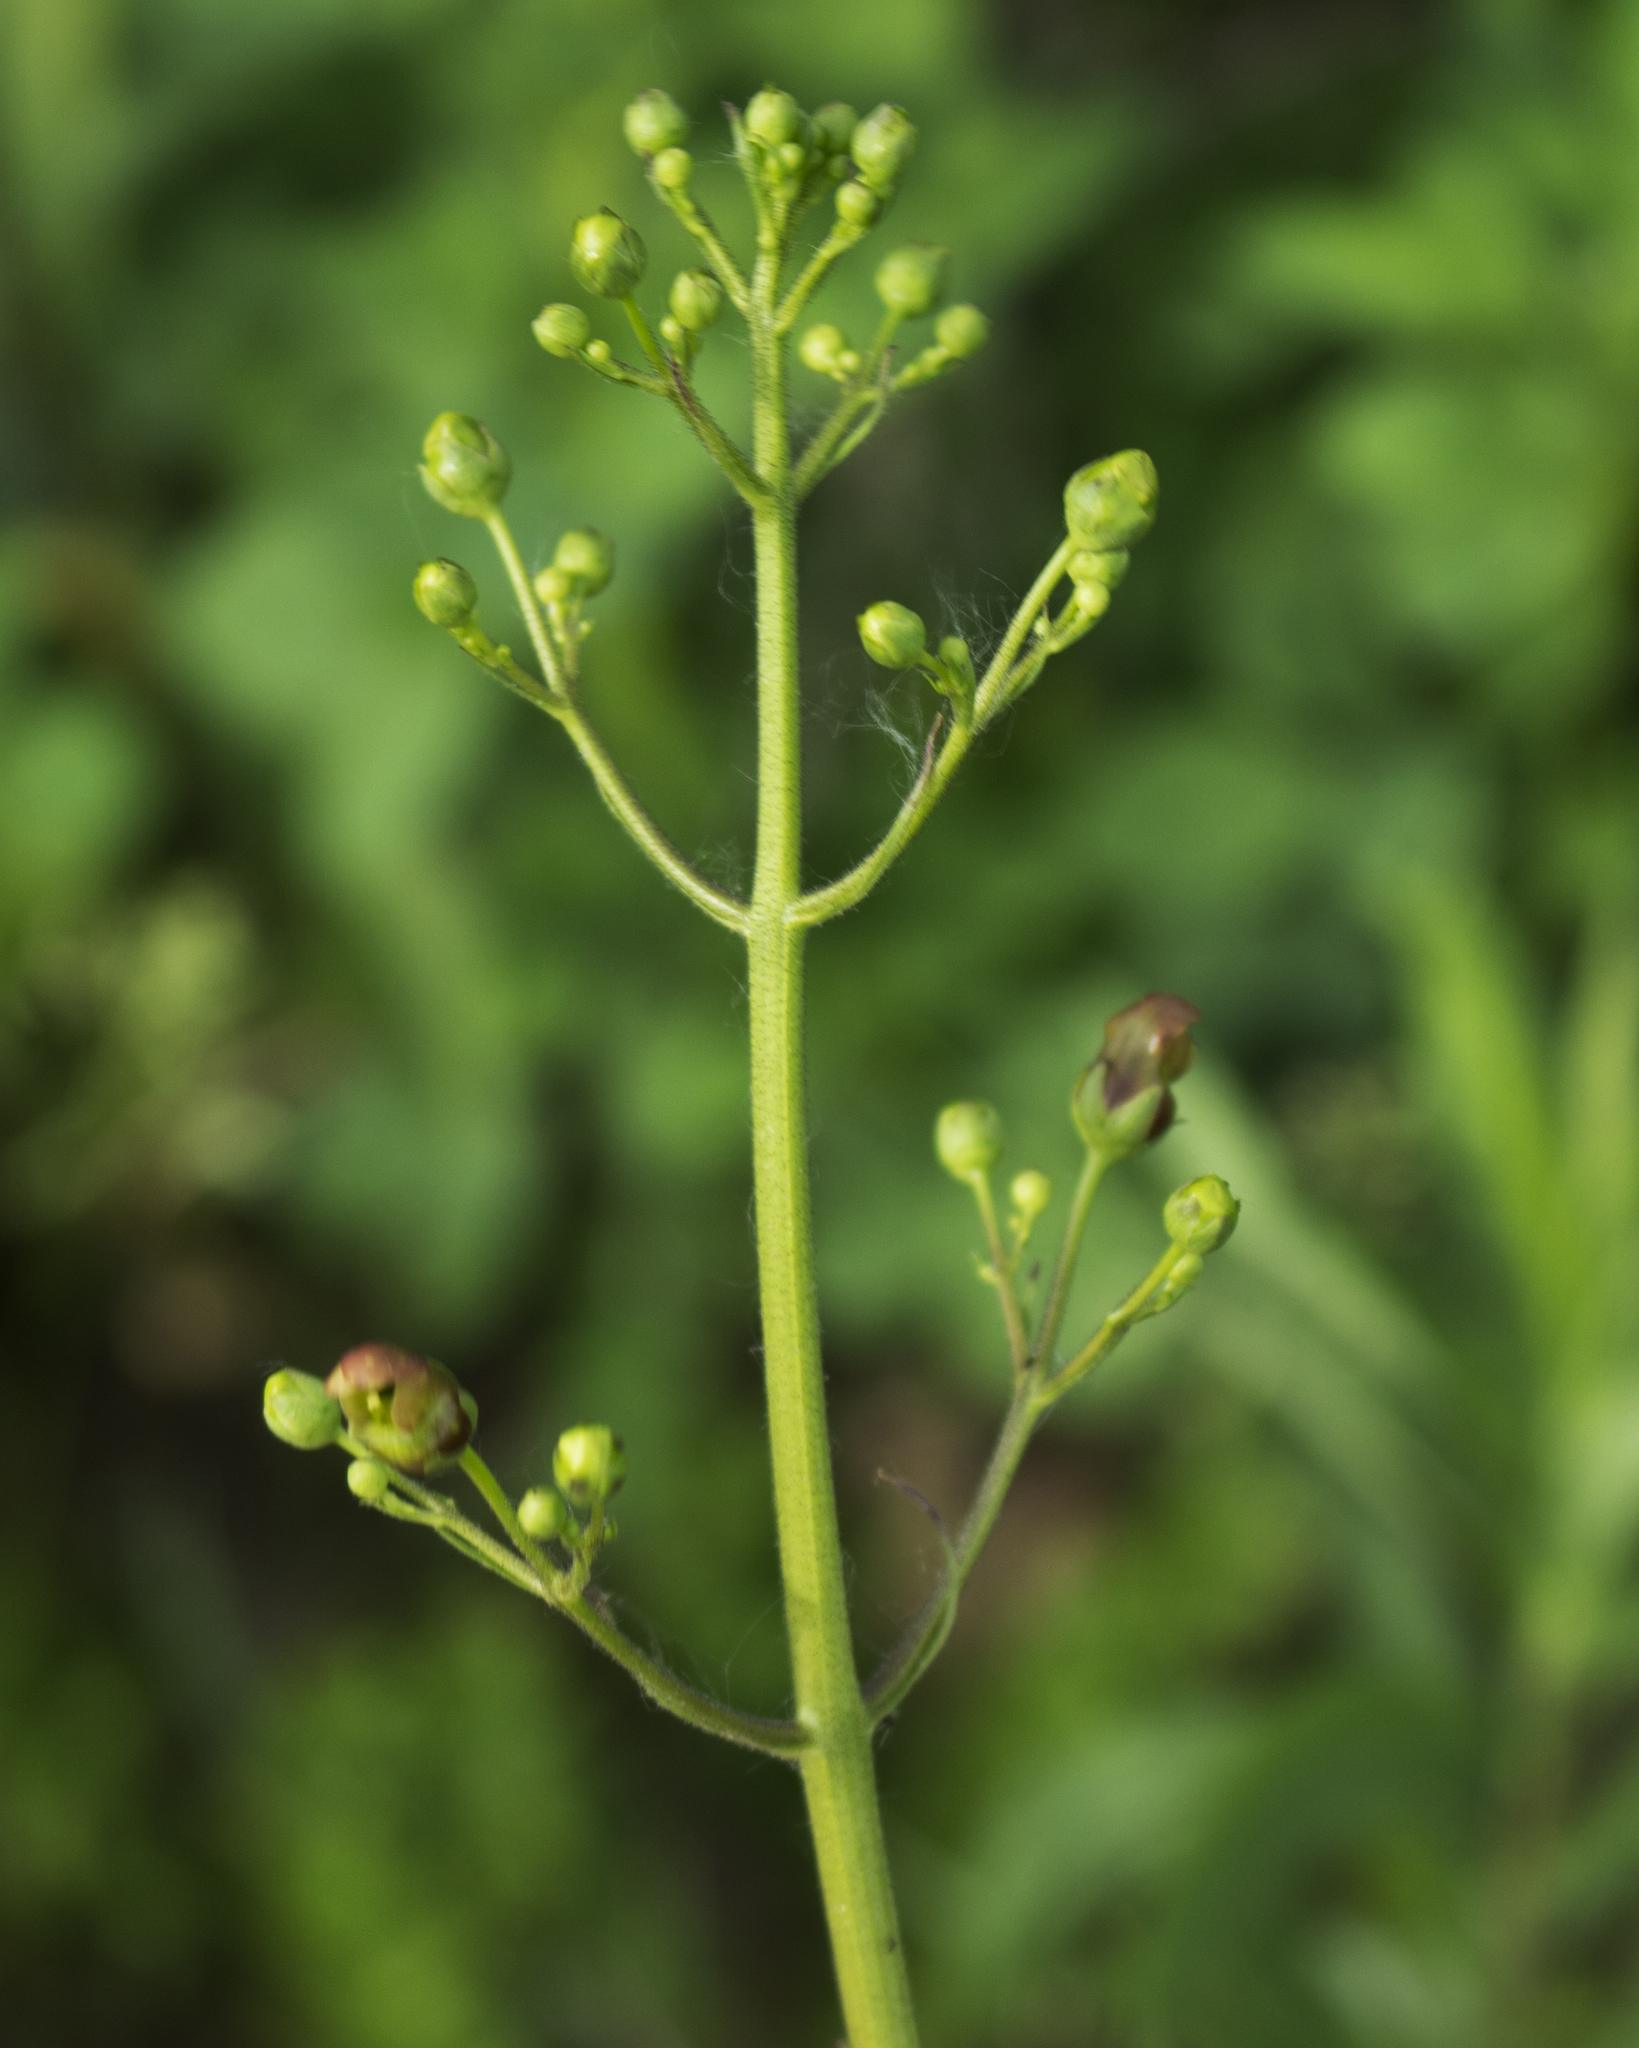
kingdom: Plantae
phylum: Tracheophyta
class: Magnoliopsida
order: Lamiales
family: Scrophulariaceae
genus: Scrophularia
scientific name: Scrophularia lanceolata
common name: American figwort
